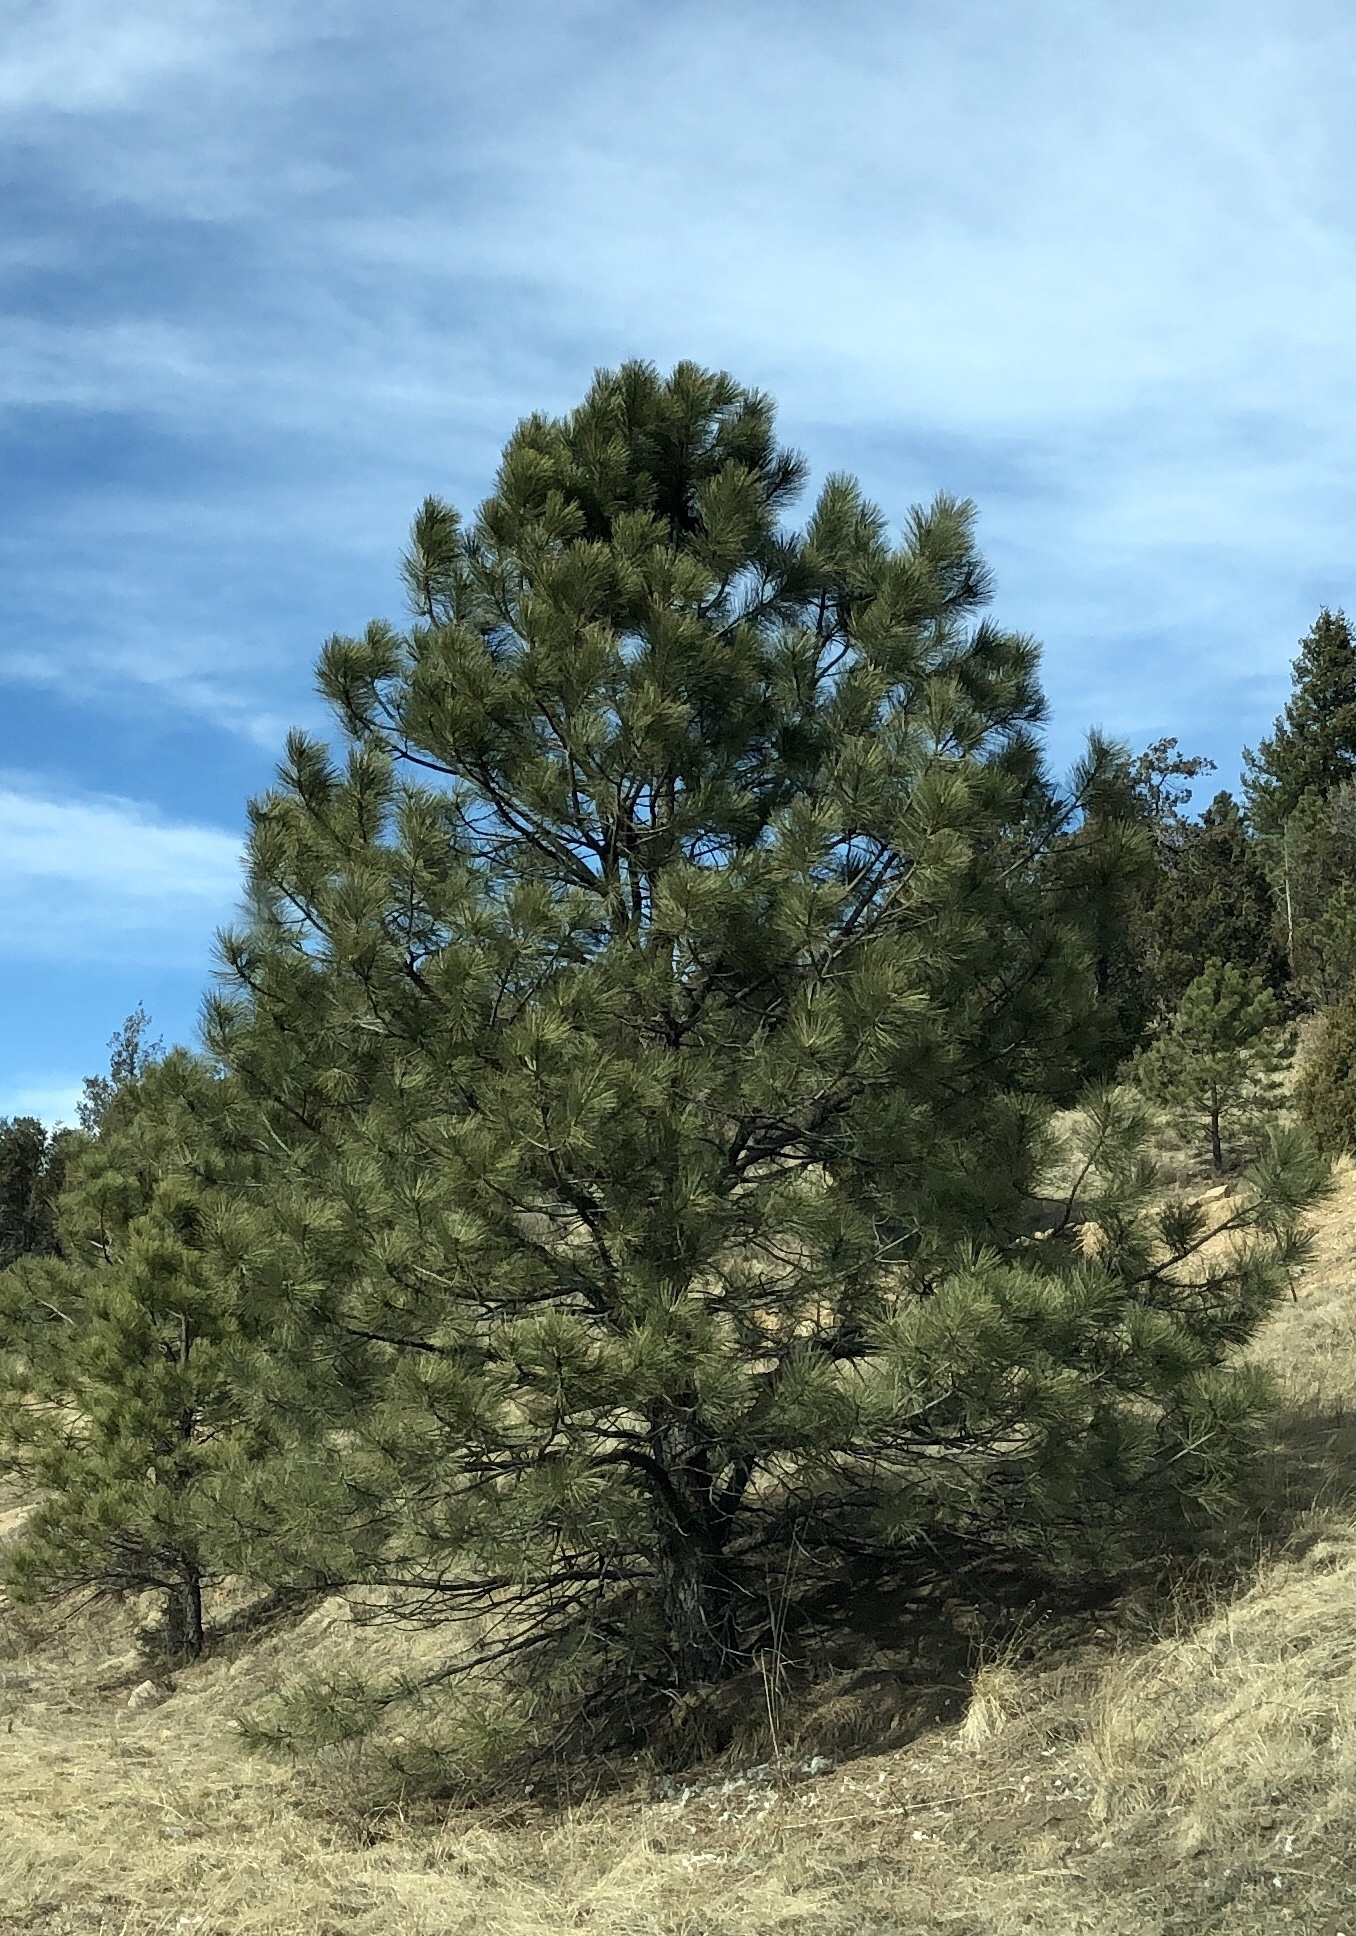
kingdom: Plantae
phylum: Tracheophyta
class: Pinopsida
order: Pinales
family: Pinaceae
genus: Pinus
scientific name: Pinus ponderosa
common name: Western yellow-pine
